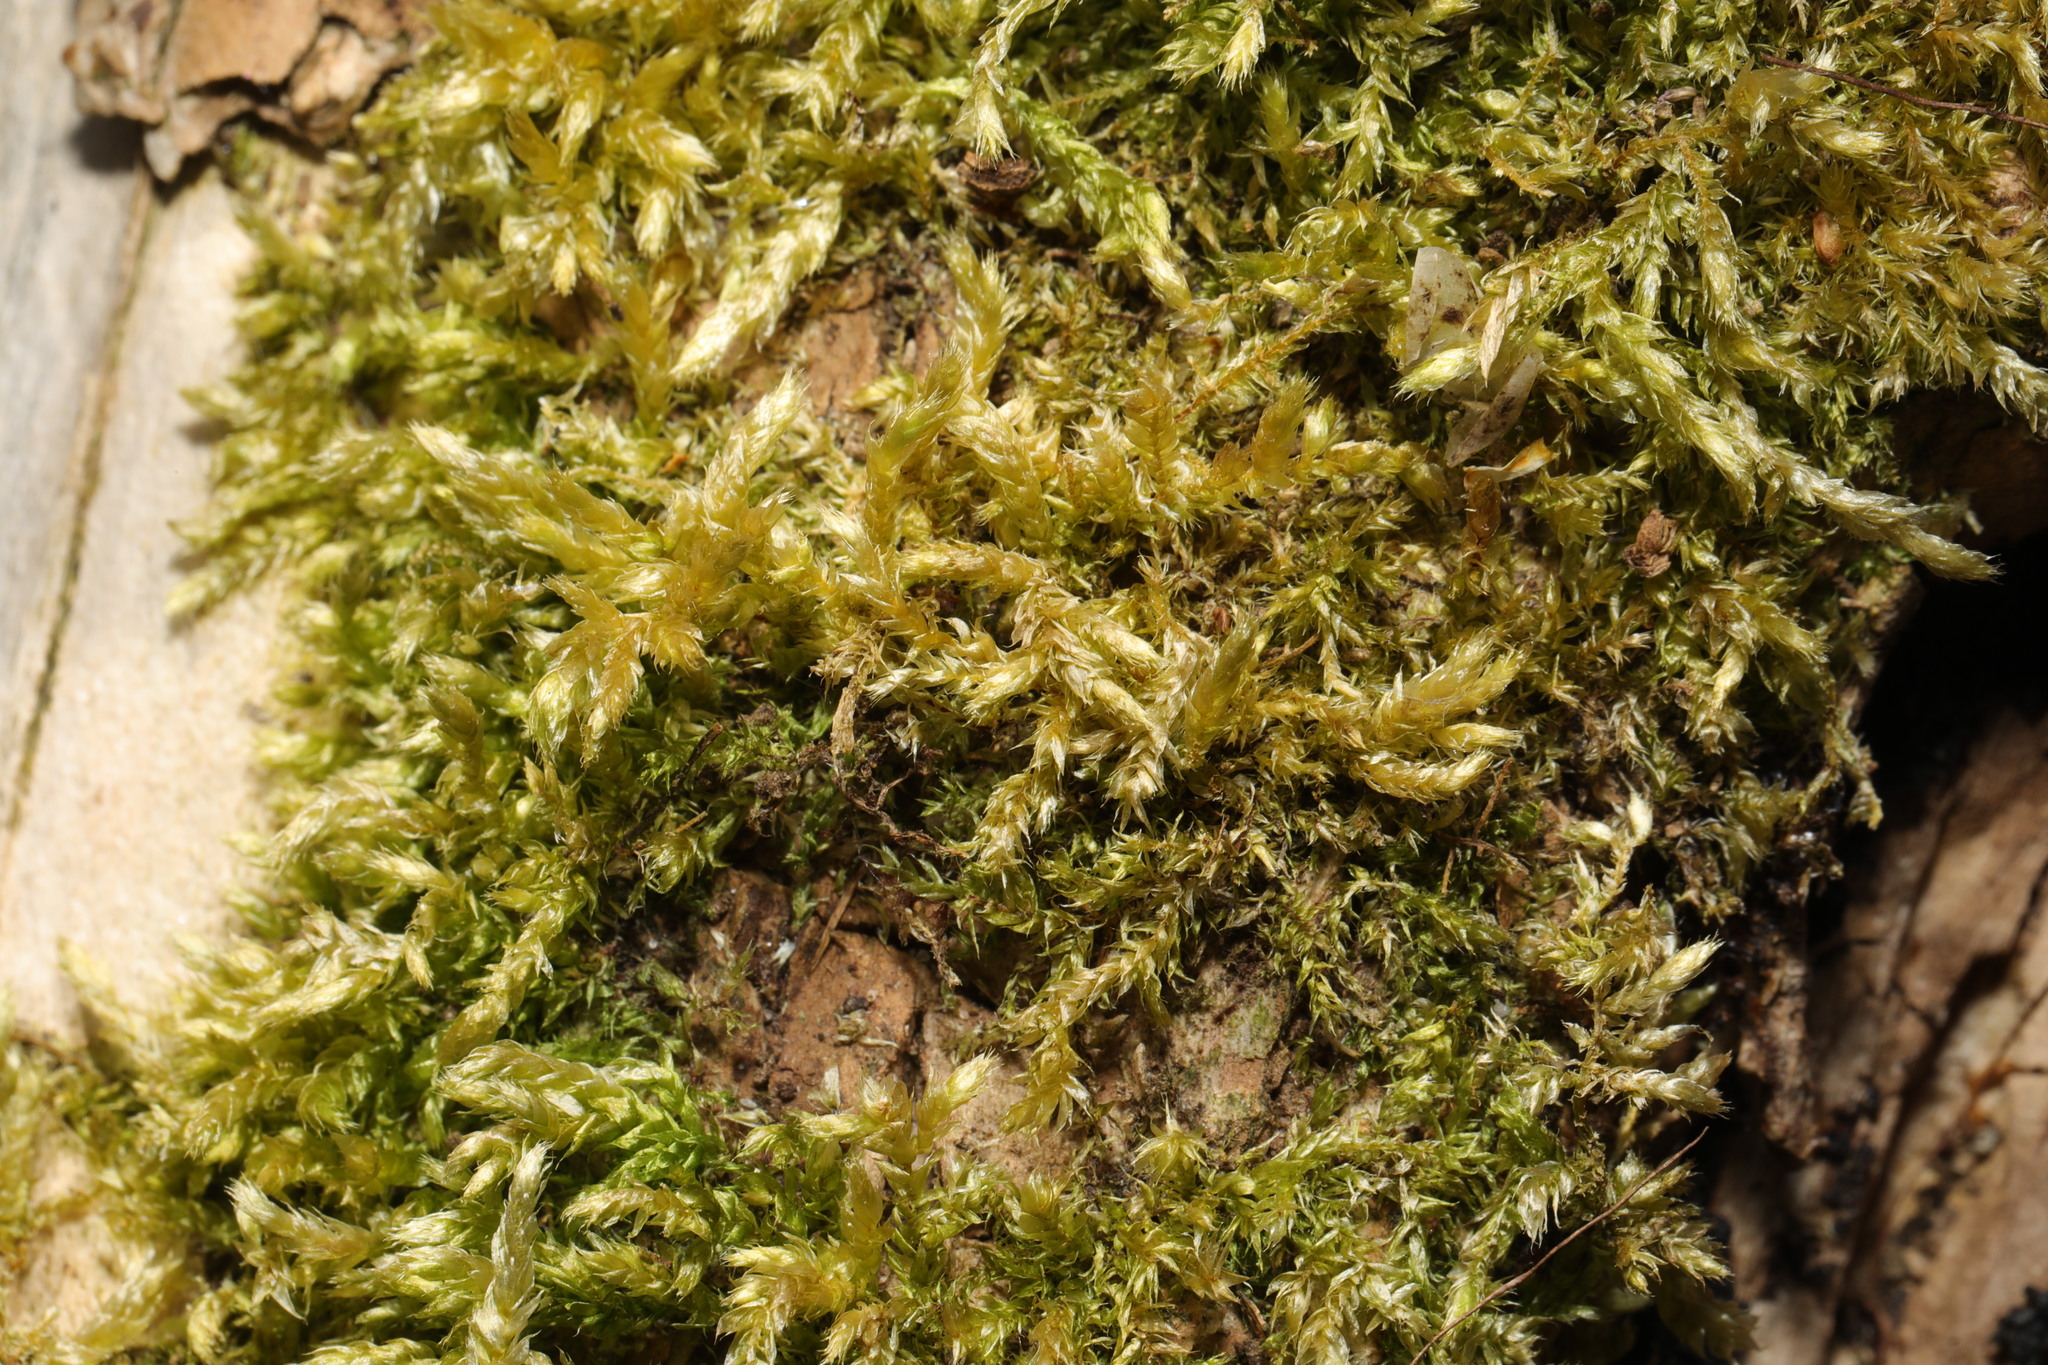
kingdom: Plantae
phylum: Bryophyta
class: Bryopsida
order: Hypnales
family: Hypnaceae
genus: Hypnum
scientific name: Hypnum cupressiforme
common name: Cypress-leaved plait-moss
